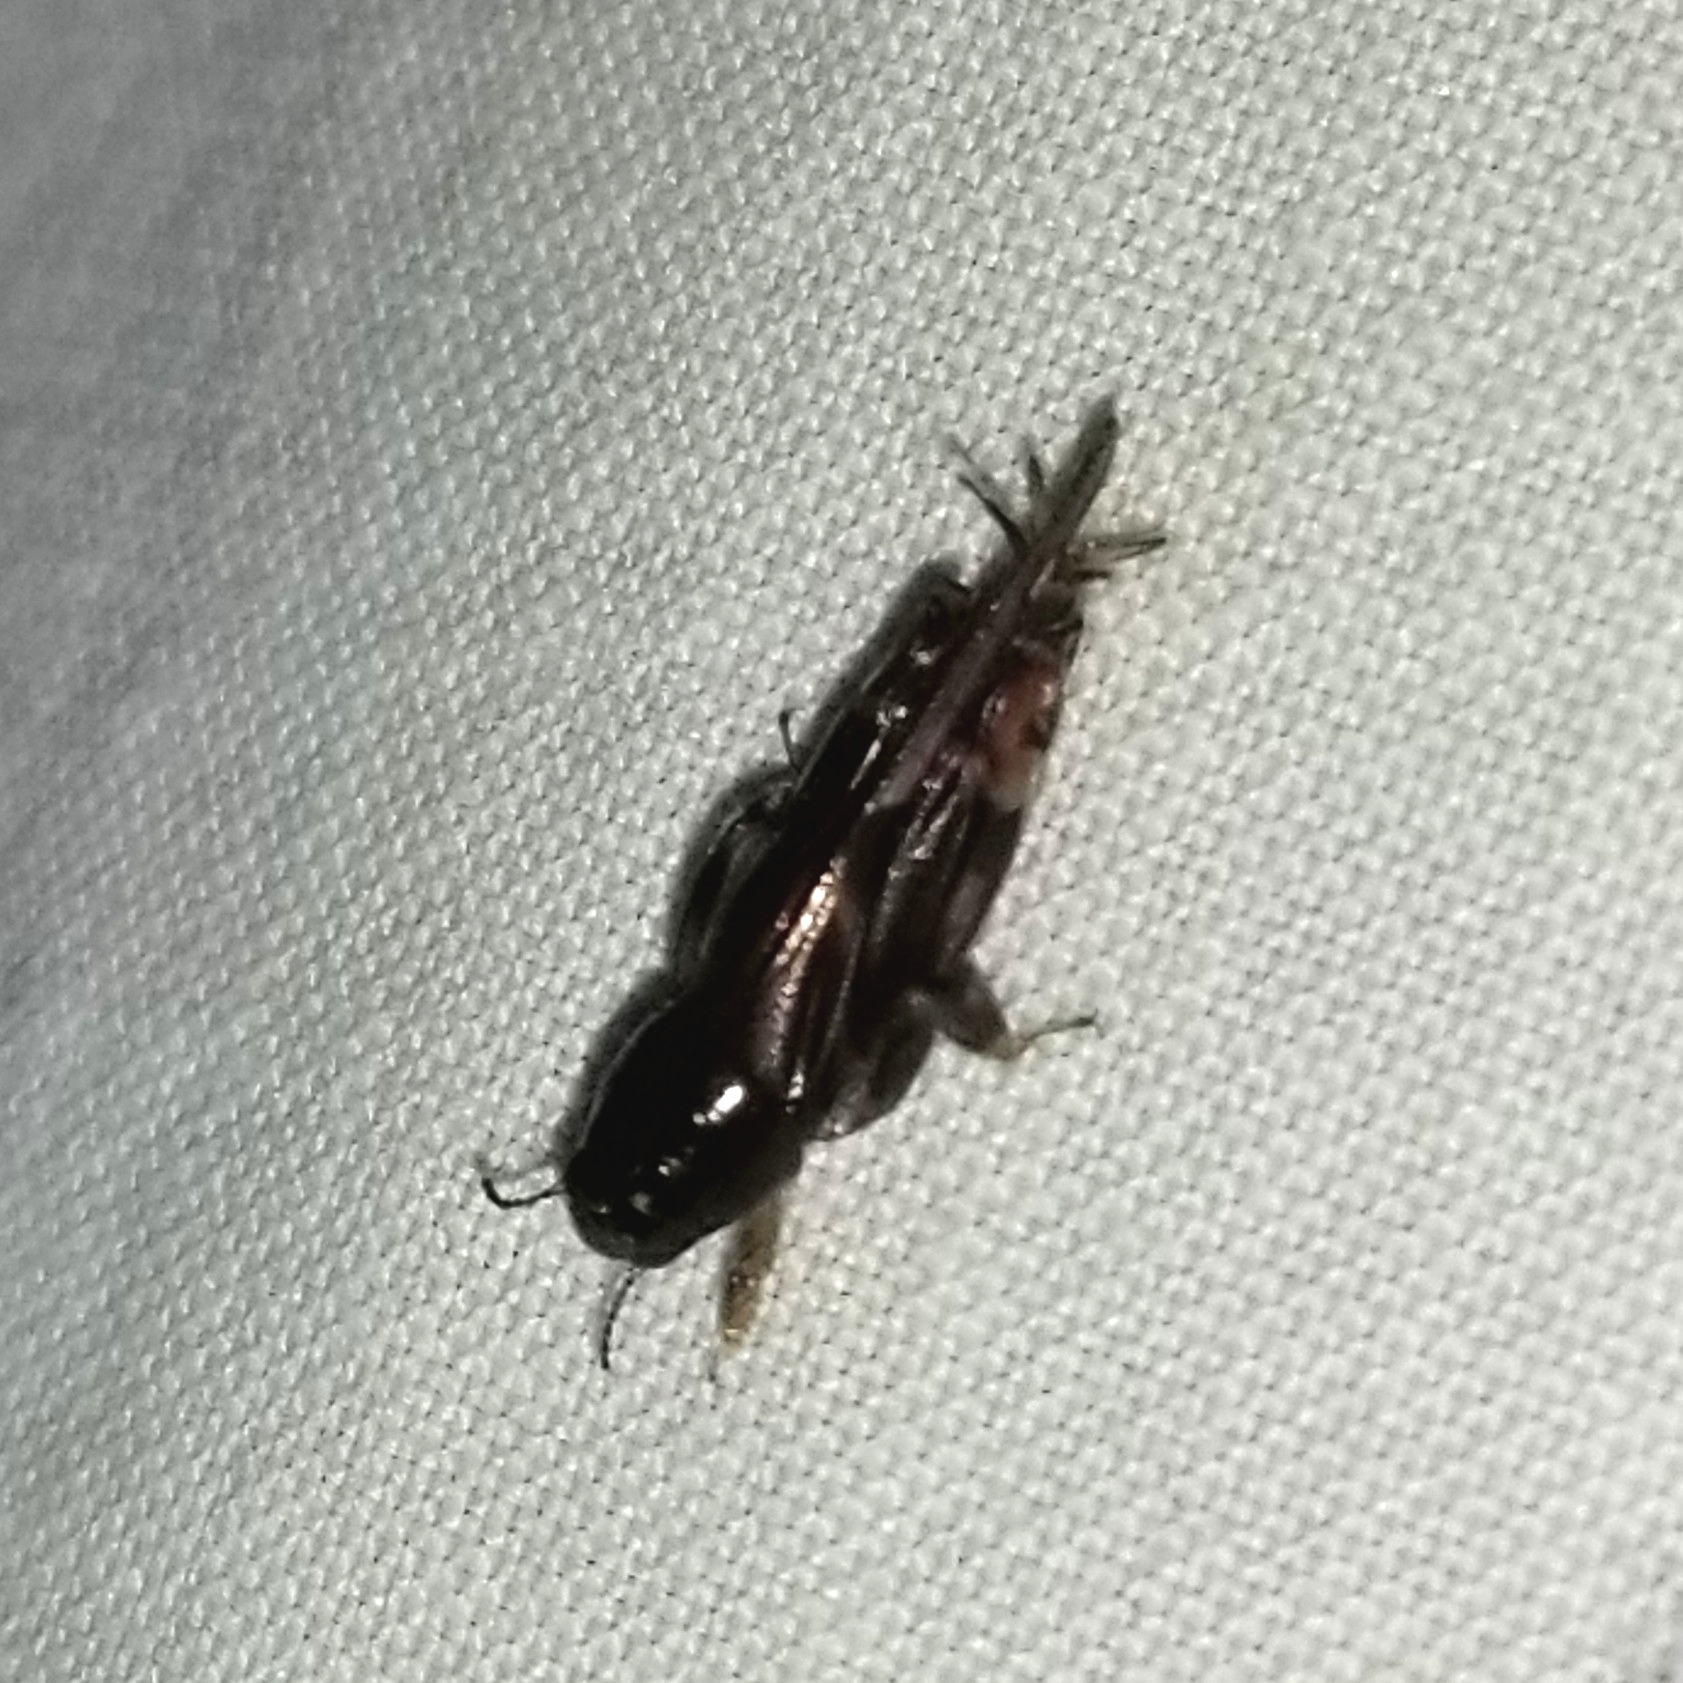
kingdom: Animalia
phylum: Arthropoda
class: Insecta
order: Orthoptera
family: Tridactylidae
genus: Neotridactylus
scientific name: Neotridactylus apicialis
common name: Larger pygmy locust
